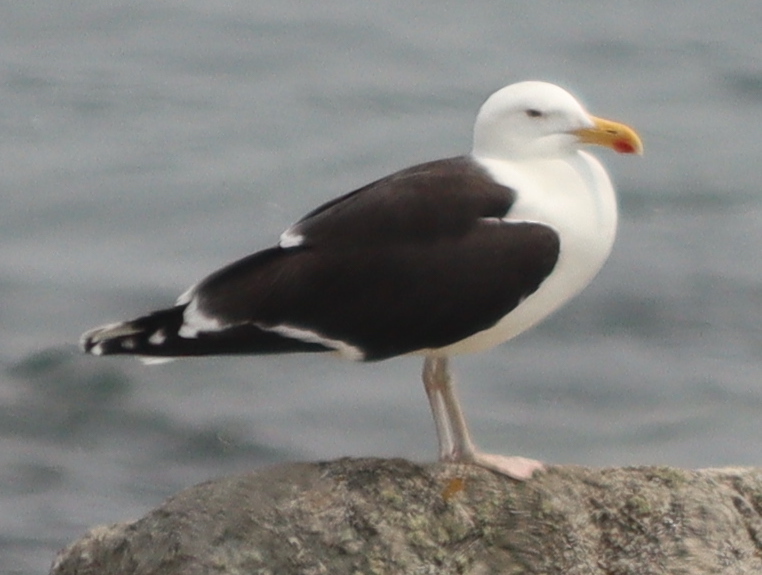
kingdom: Animalia
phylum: Chordata
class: Aves
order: Charadriiformes
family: Laridae
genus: Larus
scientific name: Larus marinus
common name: Great black-backed gull
